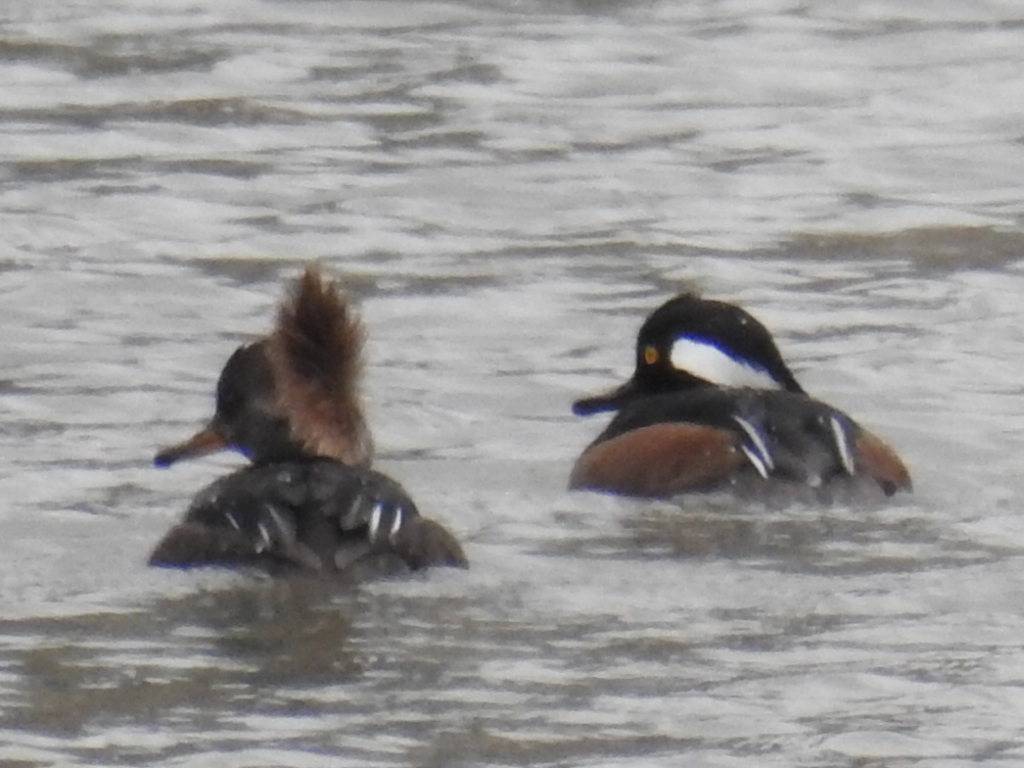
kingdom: Animalia
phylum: Chordata
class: Aves
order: Anseriformes
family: Anatidae
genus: Lophodytes
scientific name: Lophodytes cucullatus
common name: Hooded merganser
